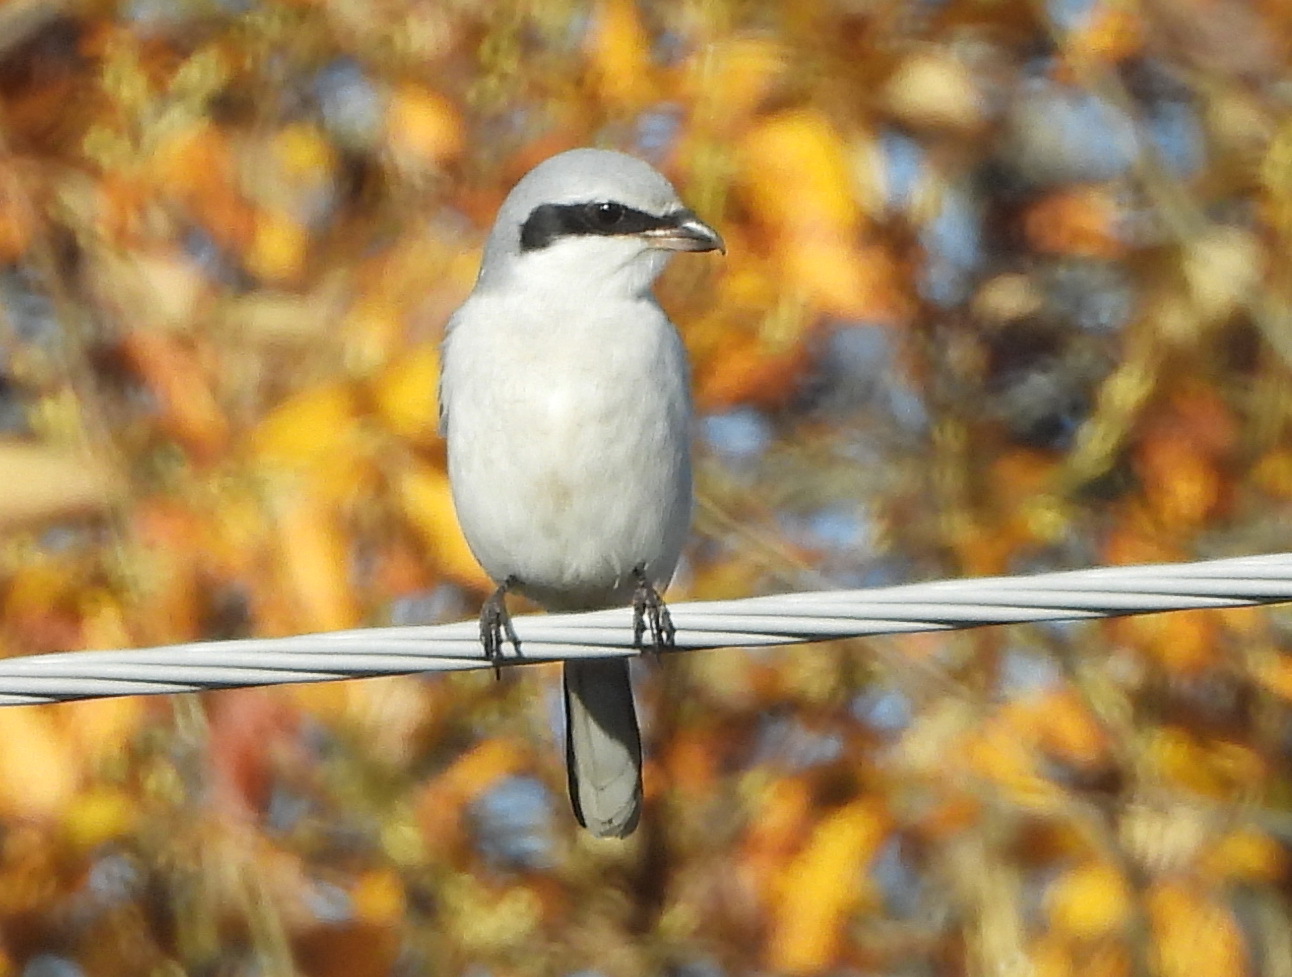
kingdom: Animalia
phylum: Chordata
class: Aves
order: Passeriformes
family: Laniidae
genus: Lanius
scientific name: Lanius excubitor
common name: Great grey shrike
